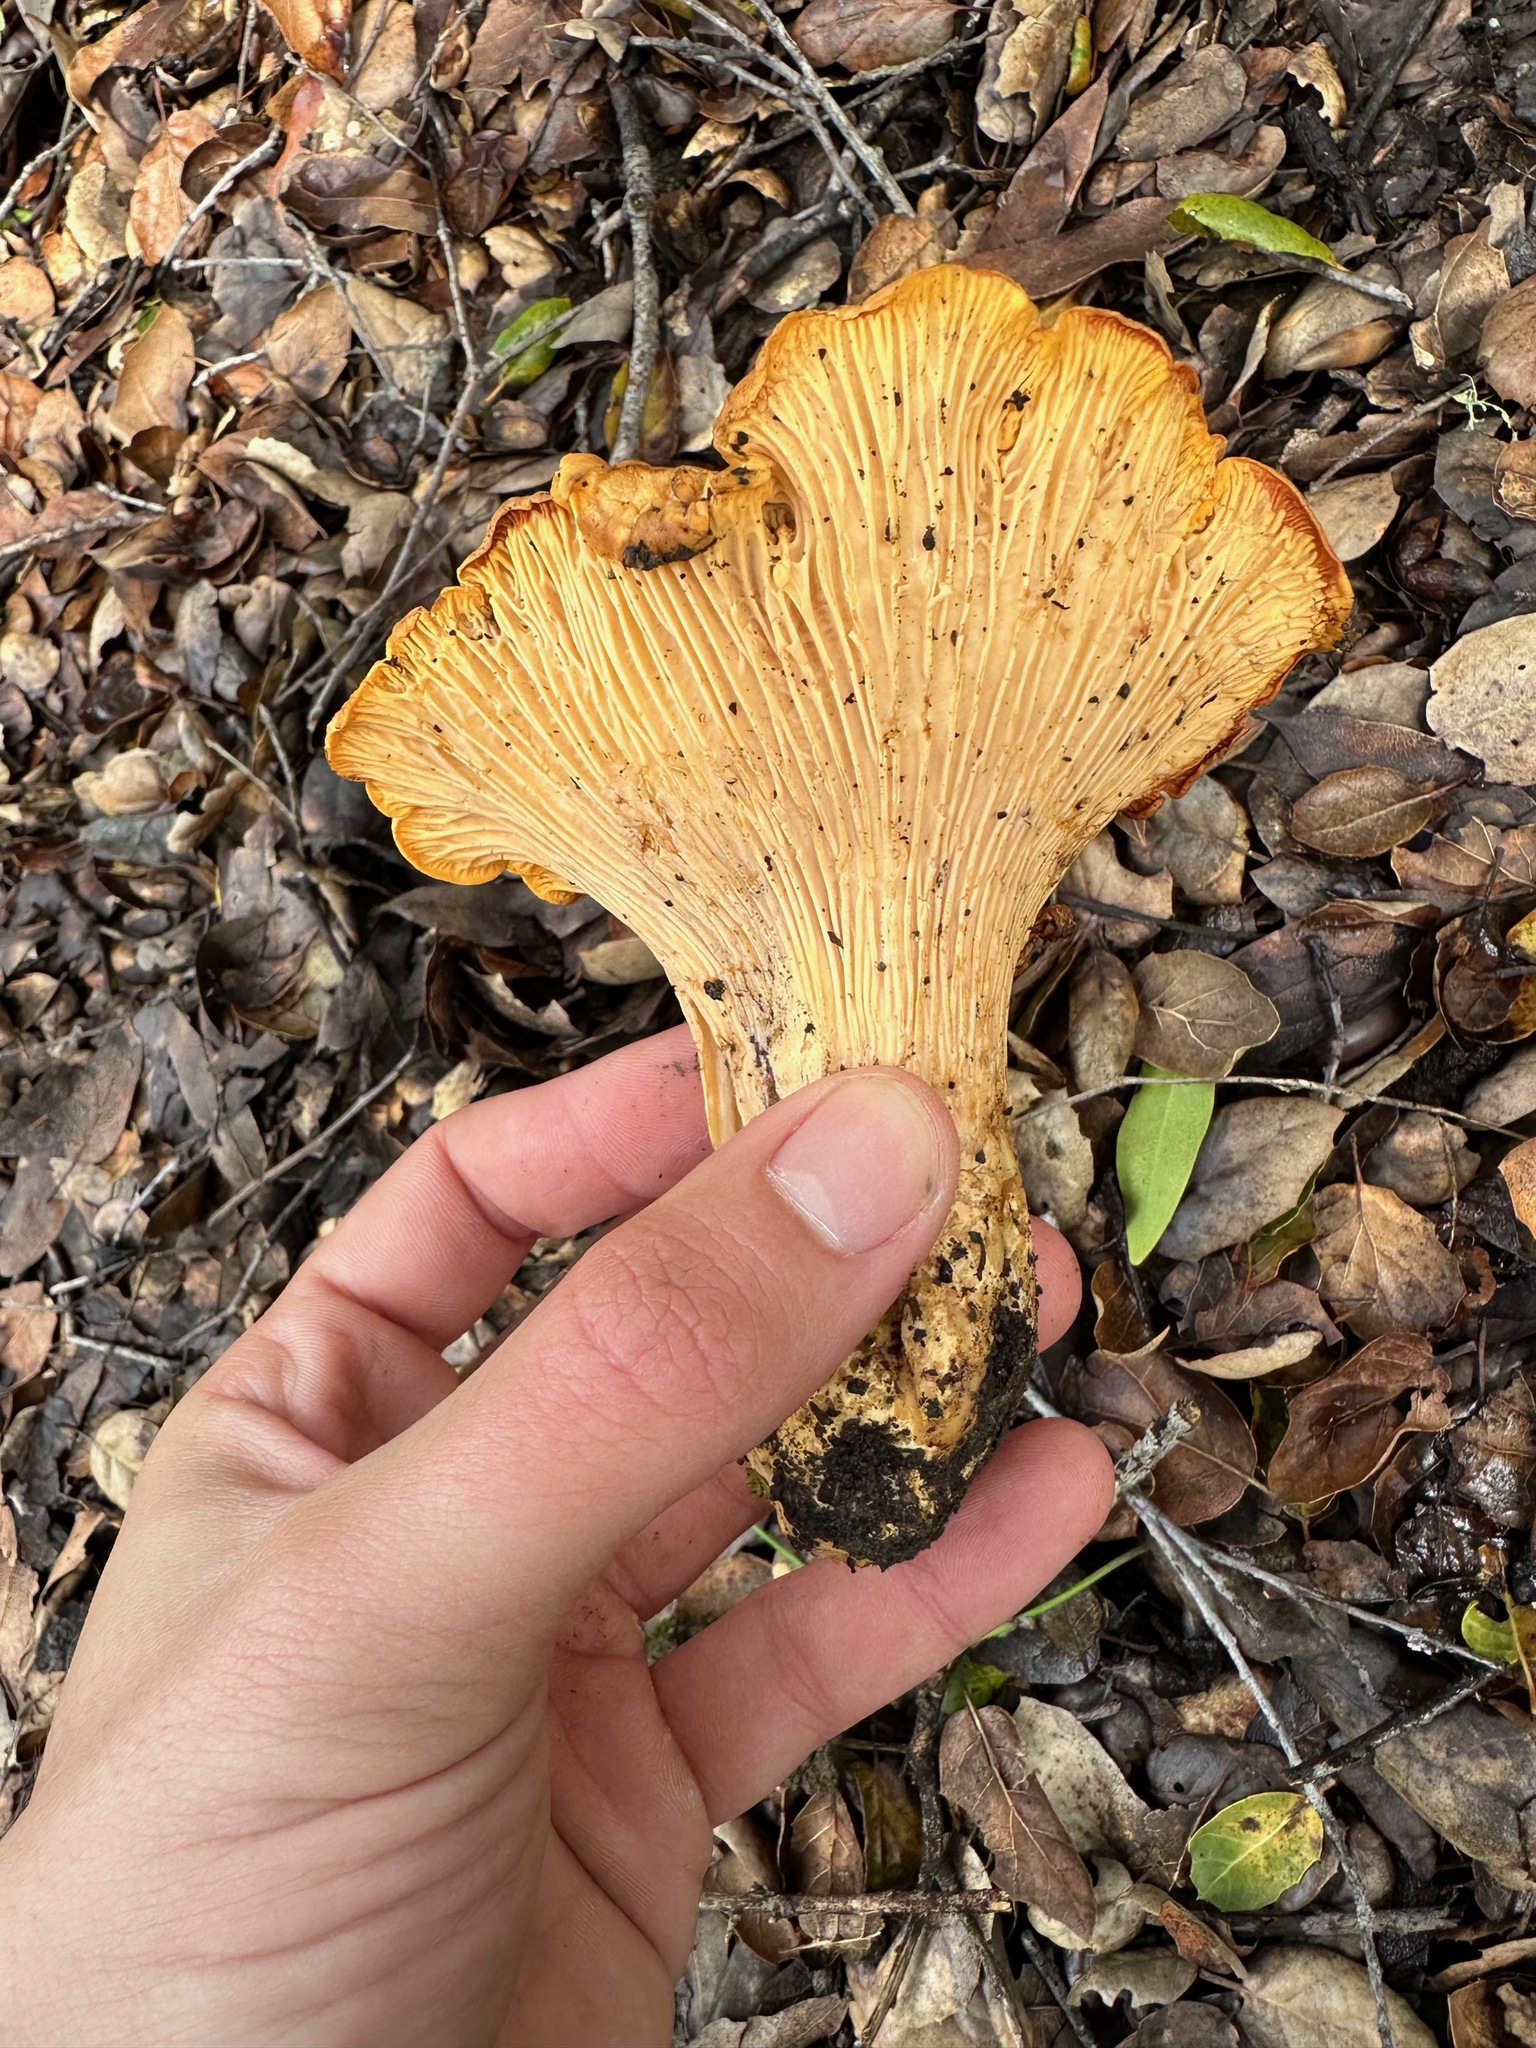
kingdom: Fungi
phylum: Basidiomycota
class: Agaricomycetes
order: Cantharellales
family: Hydnaceae
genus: Cantharellus
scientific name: Cantharellus californicus
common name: California golden chanterelle
